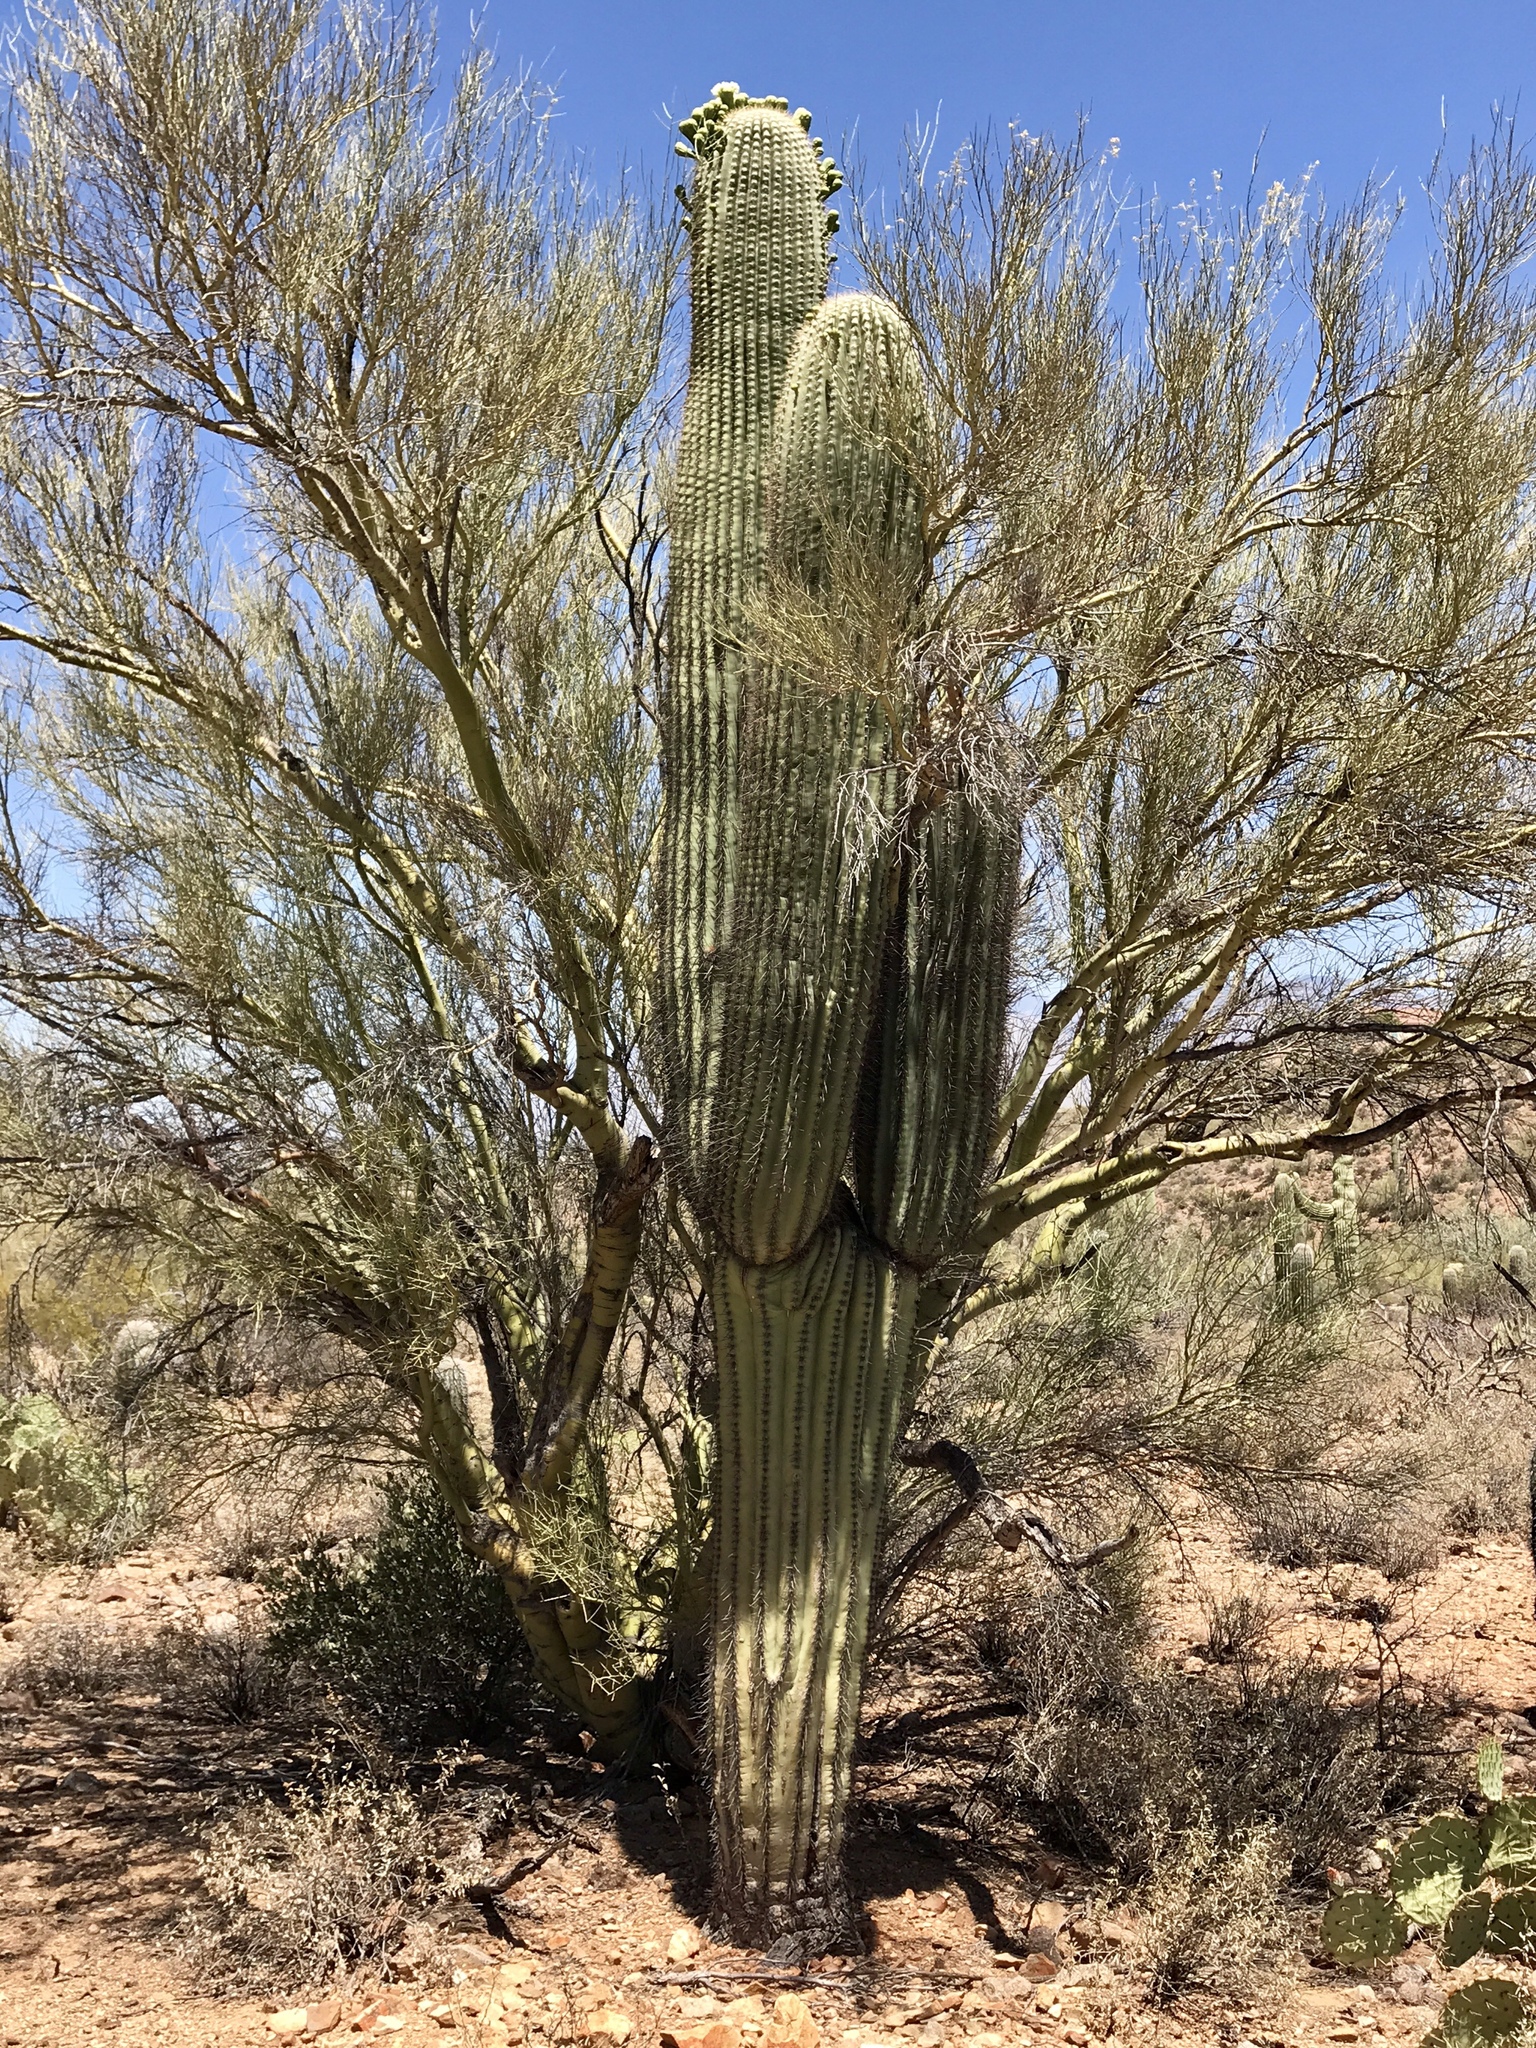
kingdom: Plantae
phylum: Tracheophyta
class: Magnoliopsida
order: Caryophyllales
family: Cactaceae
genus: Carnegiea
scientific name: Carnegiea gigantea
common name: Saguaro
